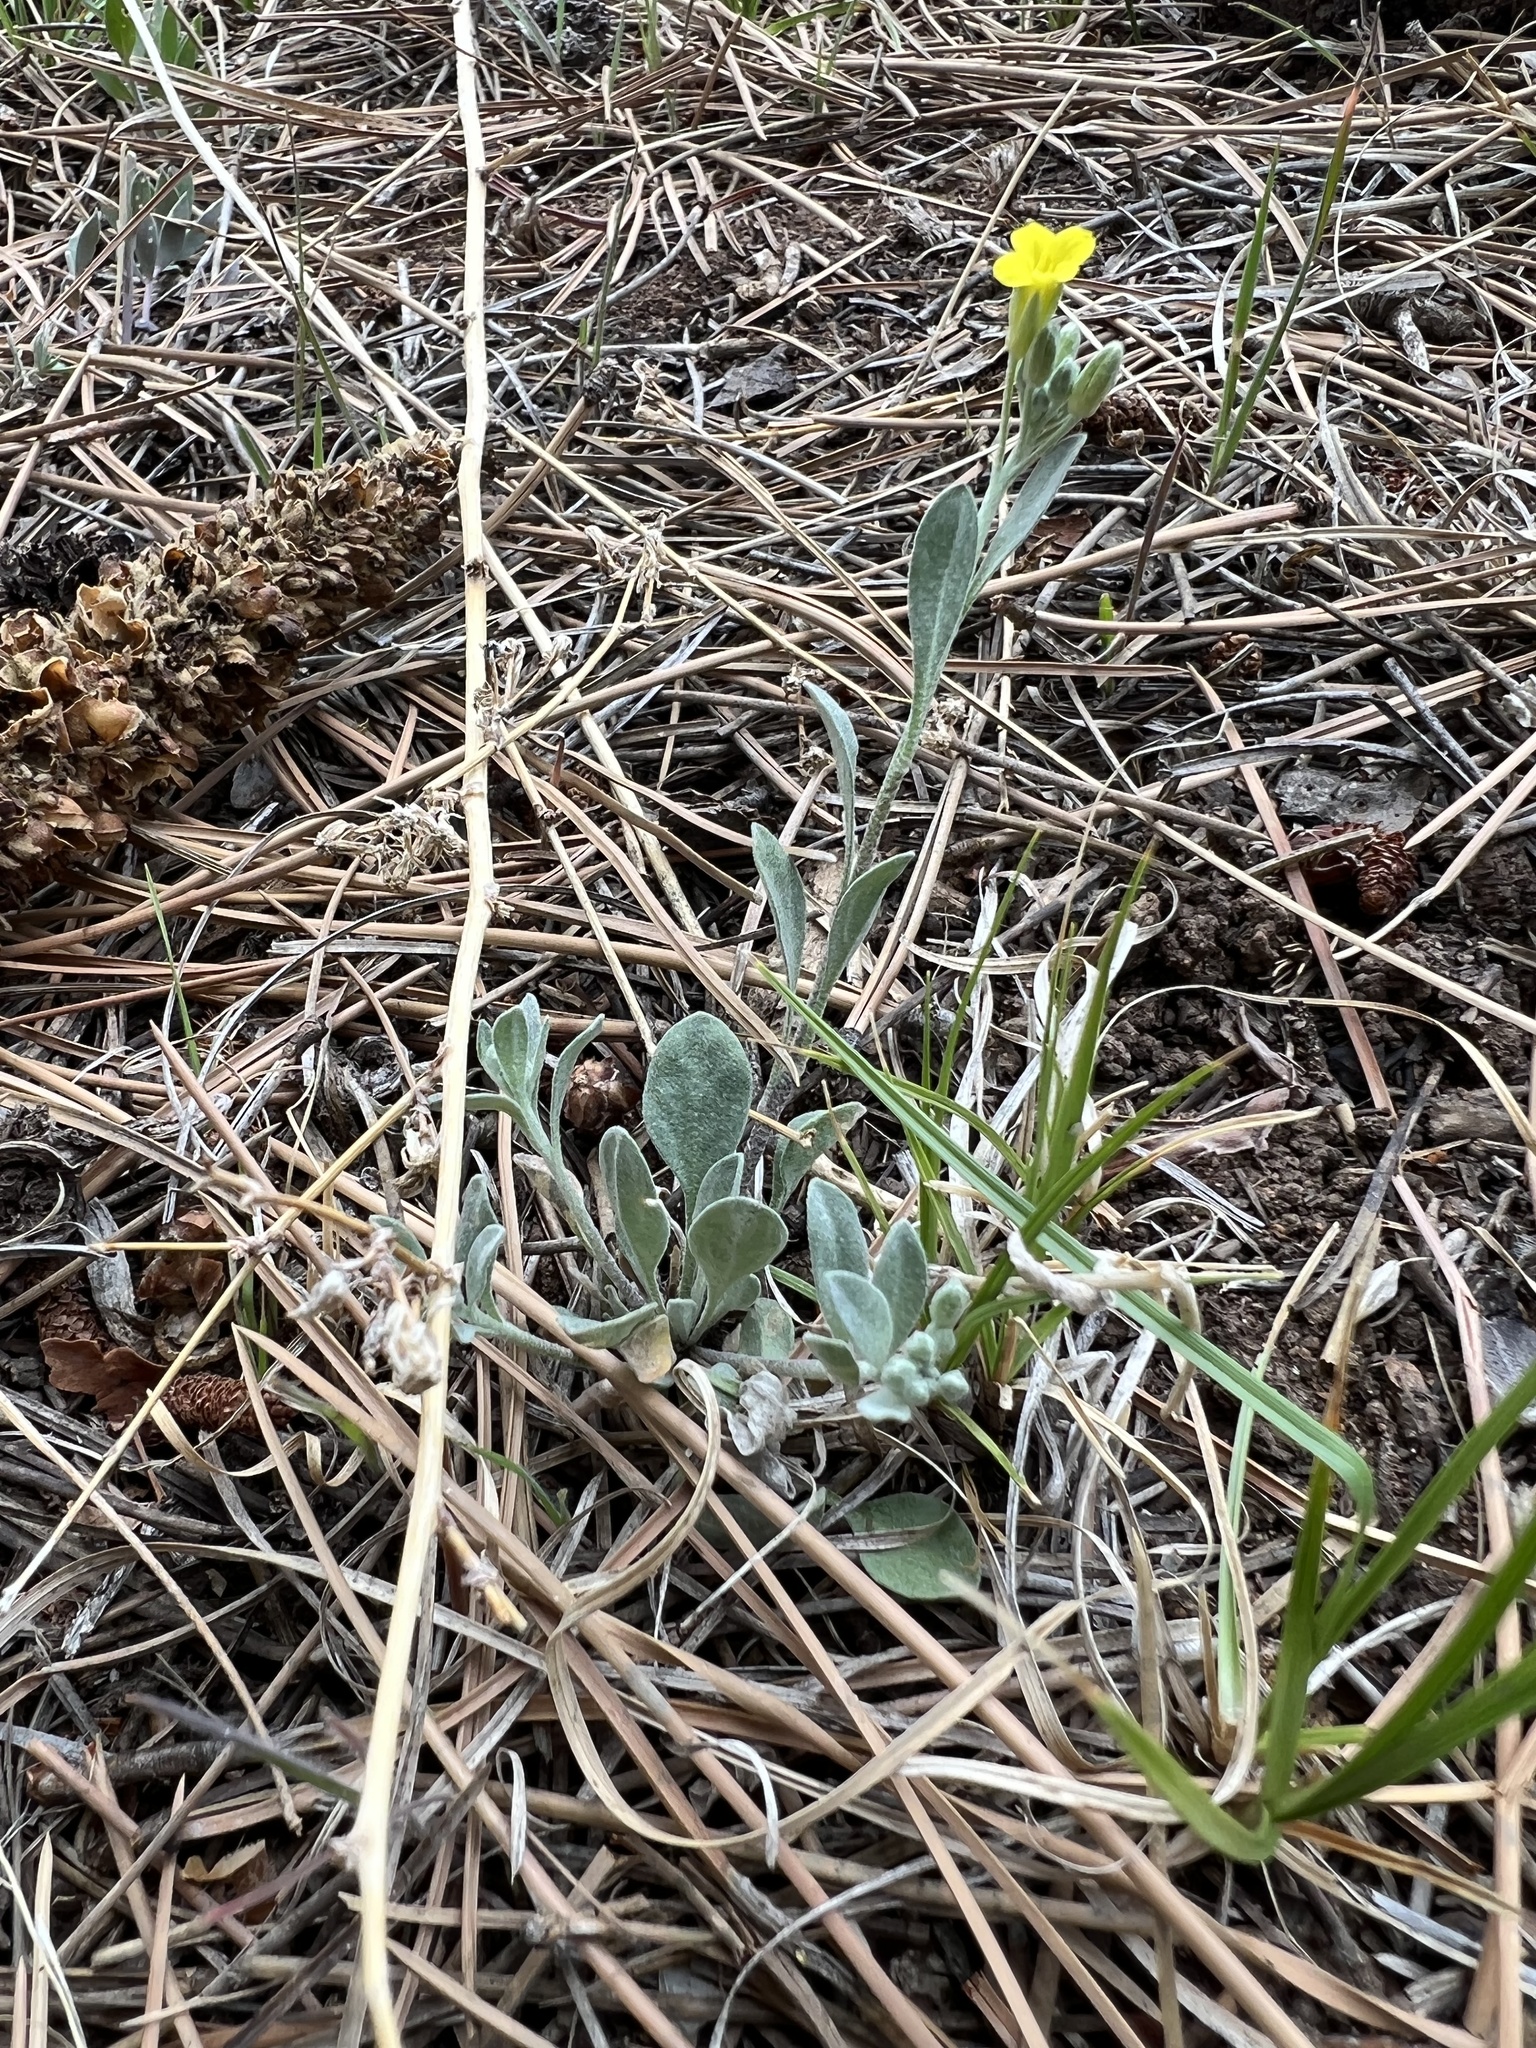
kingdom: Plantae
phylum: Tracheophyta
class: Magnoliopsida
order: Brassicales
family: Brassicaceae
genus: Physaria
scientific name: Physaria montana
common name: Mountain bladderpod
